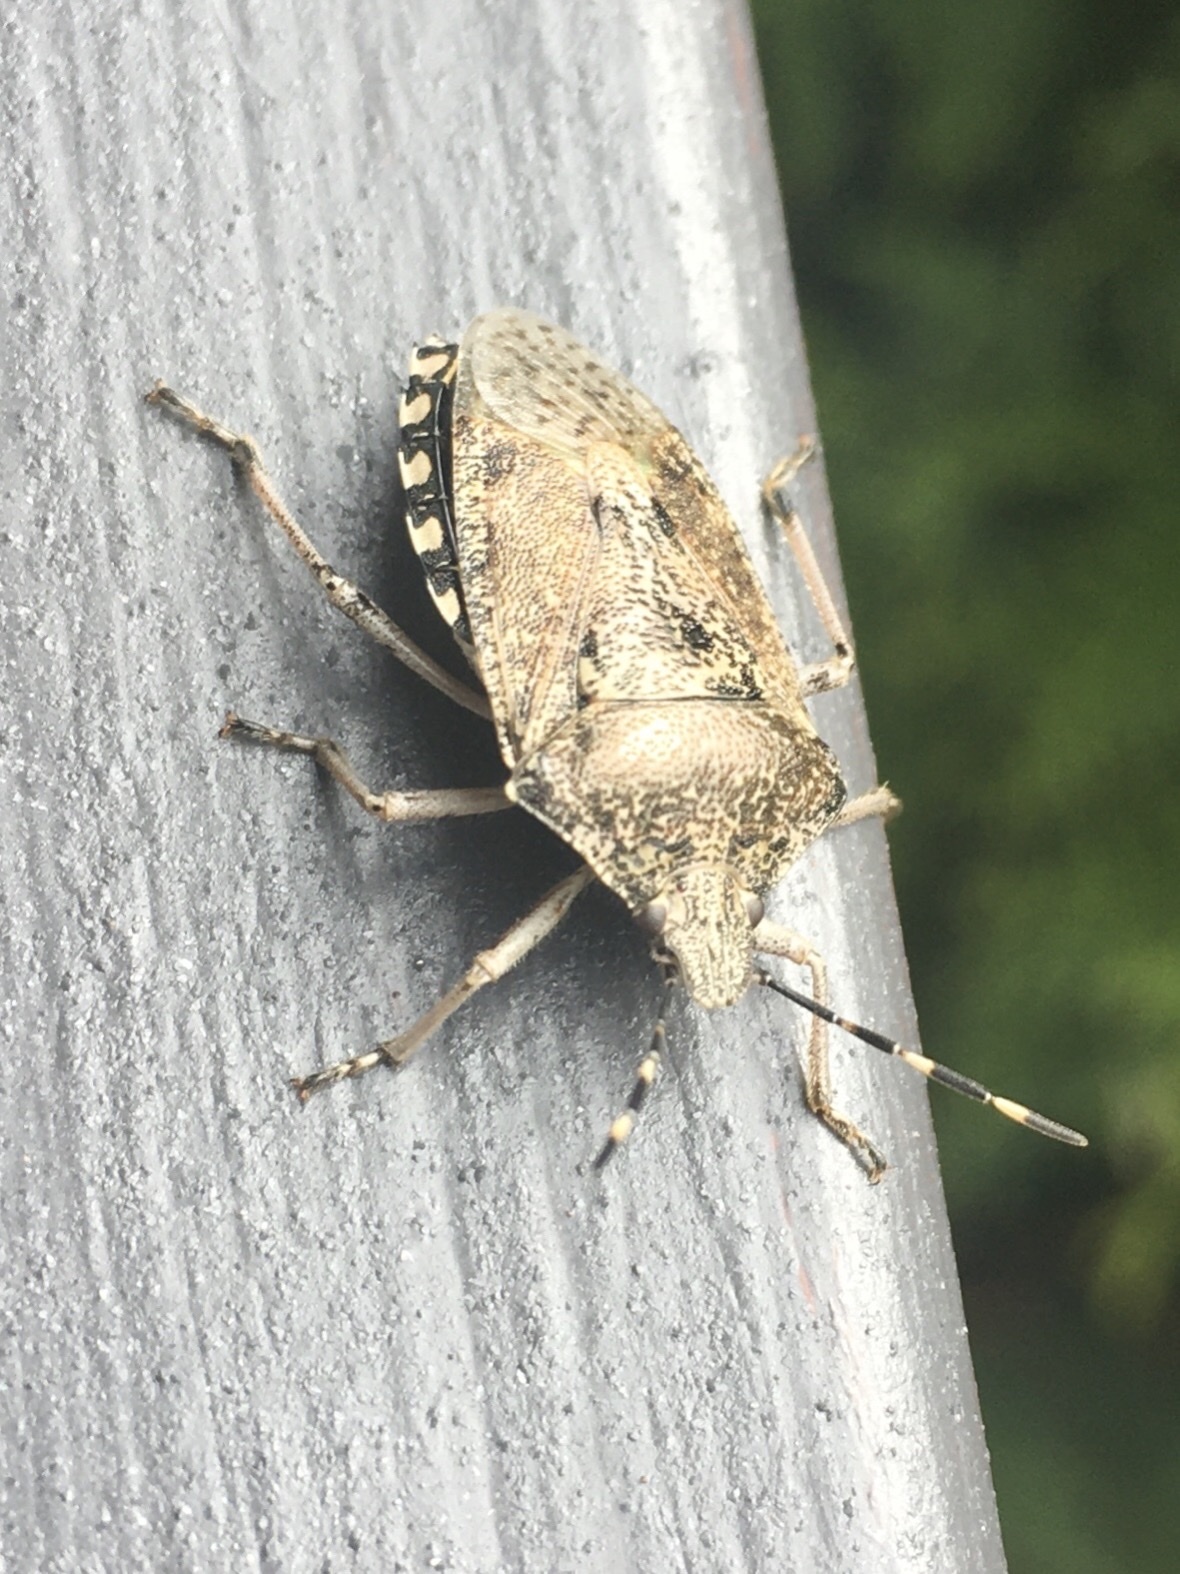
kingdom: Animalia
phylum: Arthropoda
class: Insecta
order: Hemiptera
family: Pentatomidae
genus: Rhaphigaster
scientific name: Rhaphigaster nebulosa
